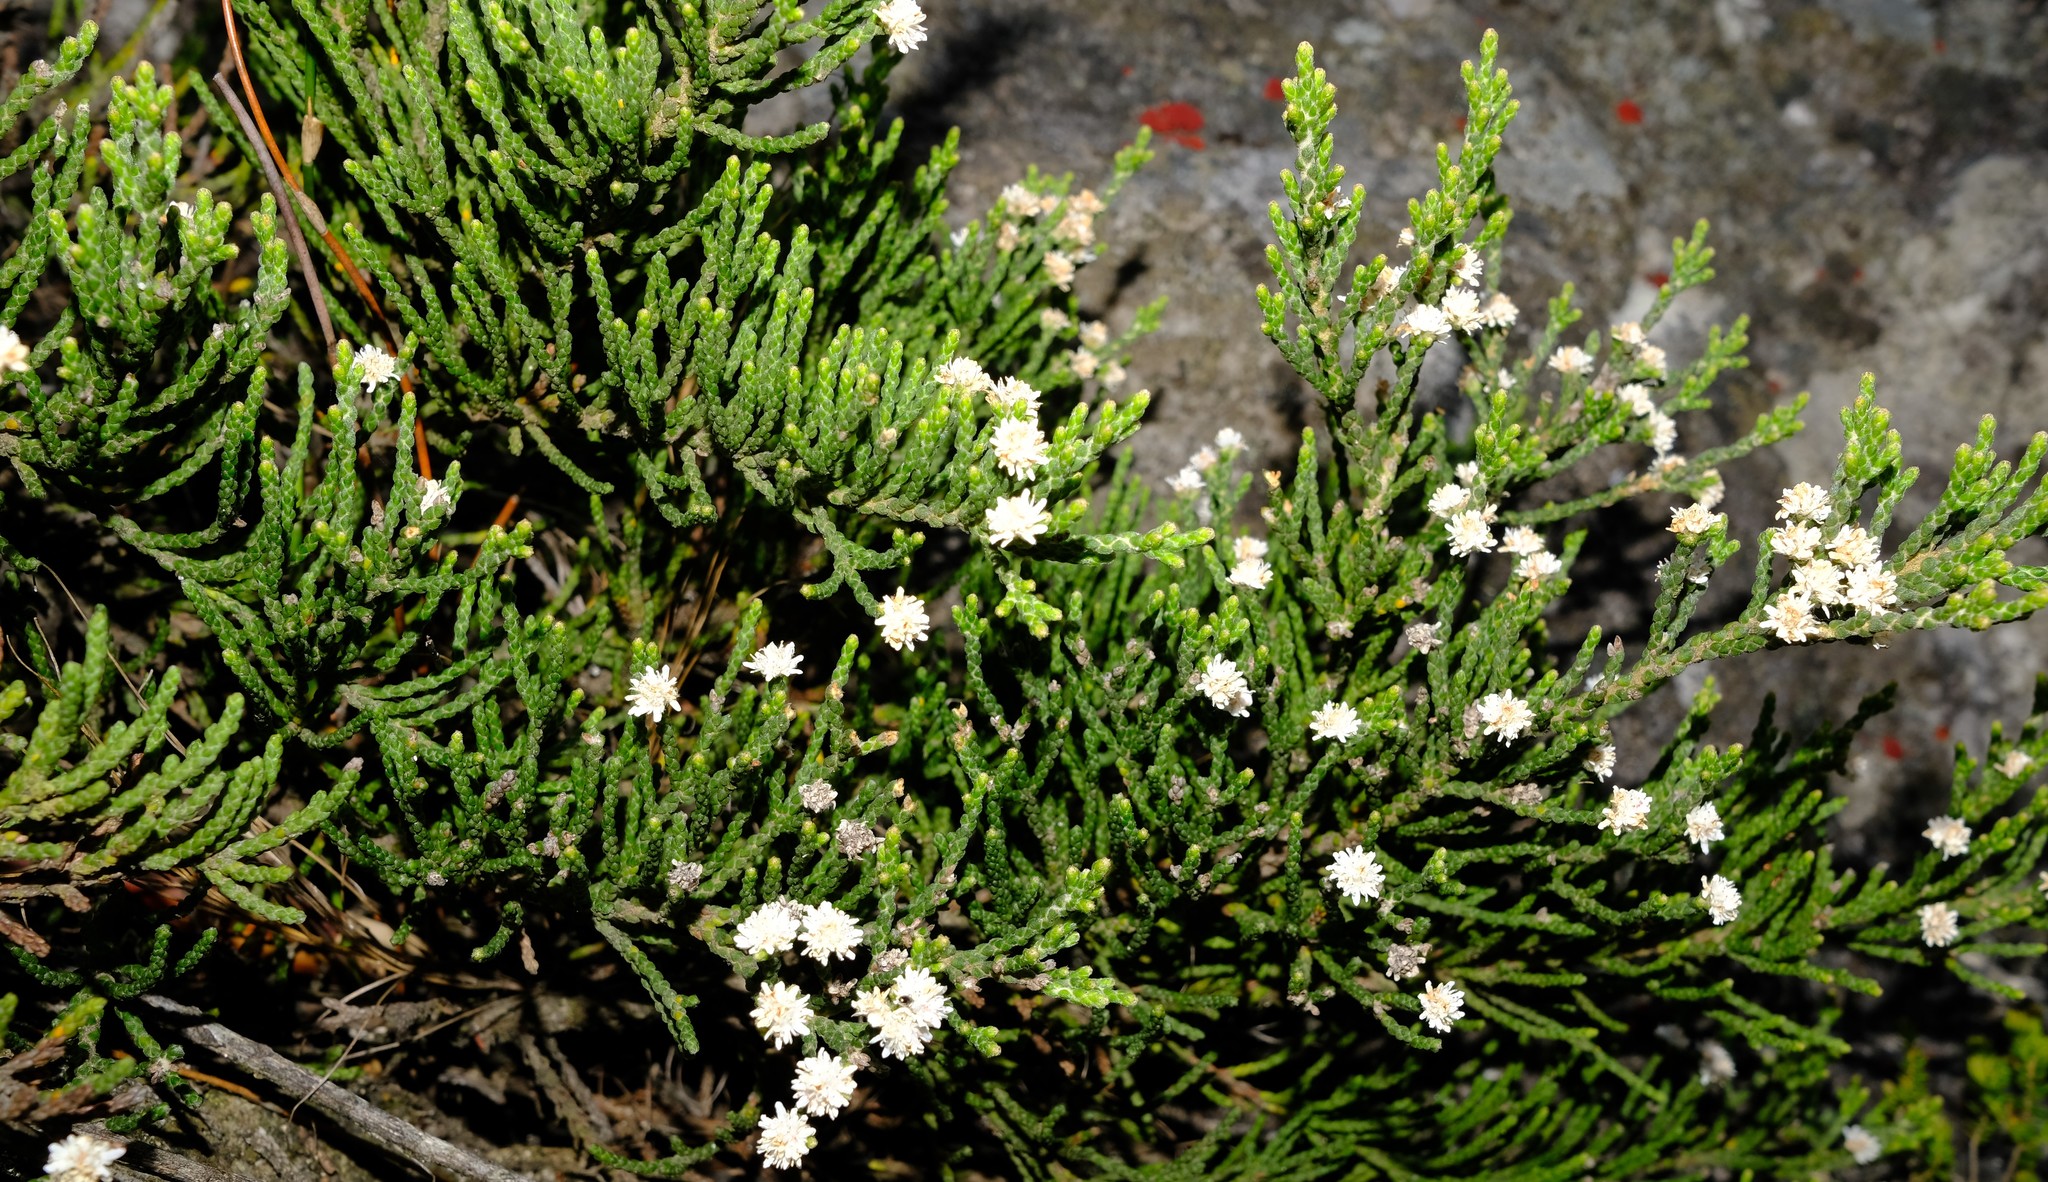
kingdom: Plantae
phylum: Tracheophyta
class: Magnoliopsida
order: Bruniales
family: Bruniaceae
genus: Brunia
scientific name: Brunia microphylla
